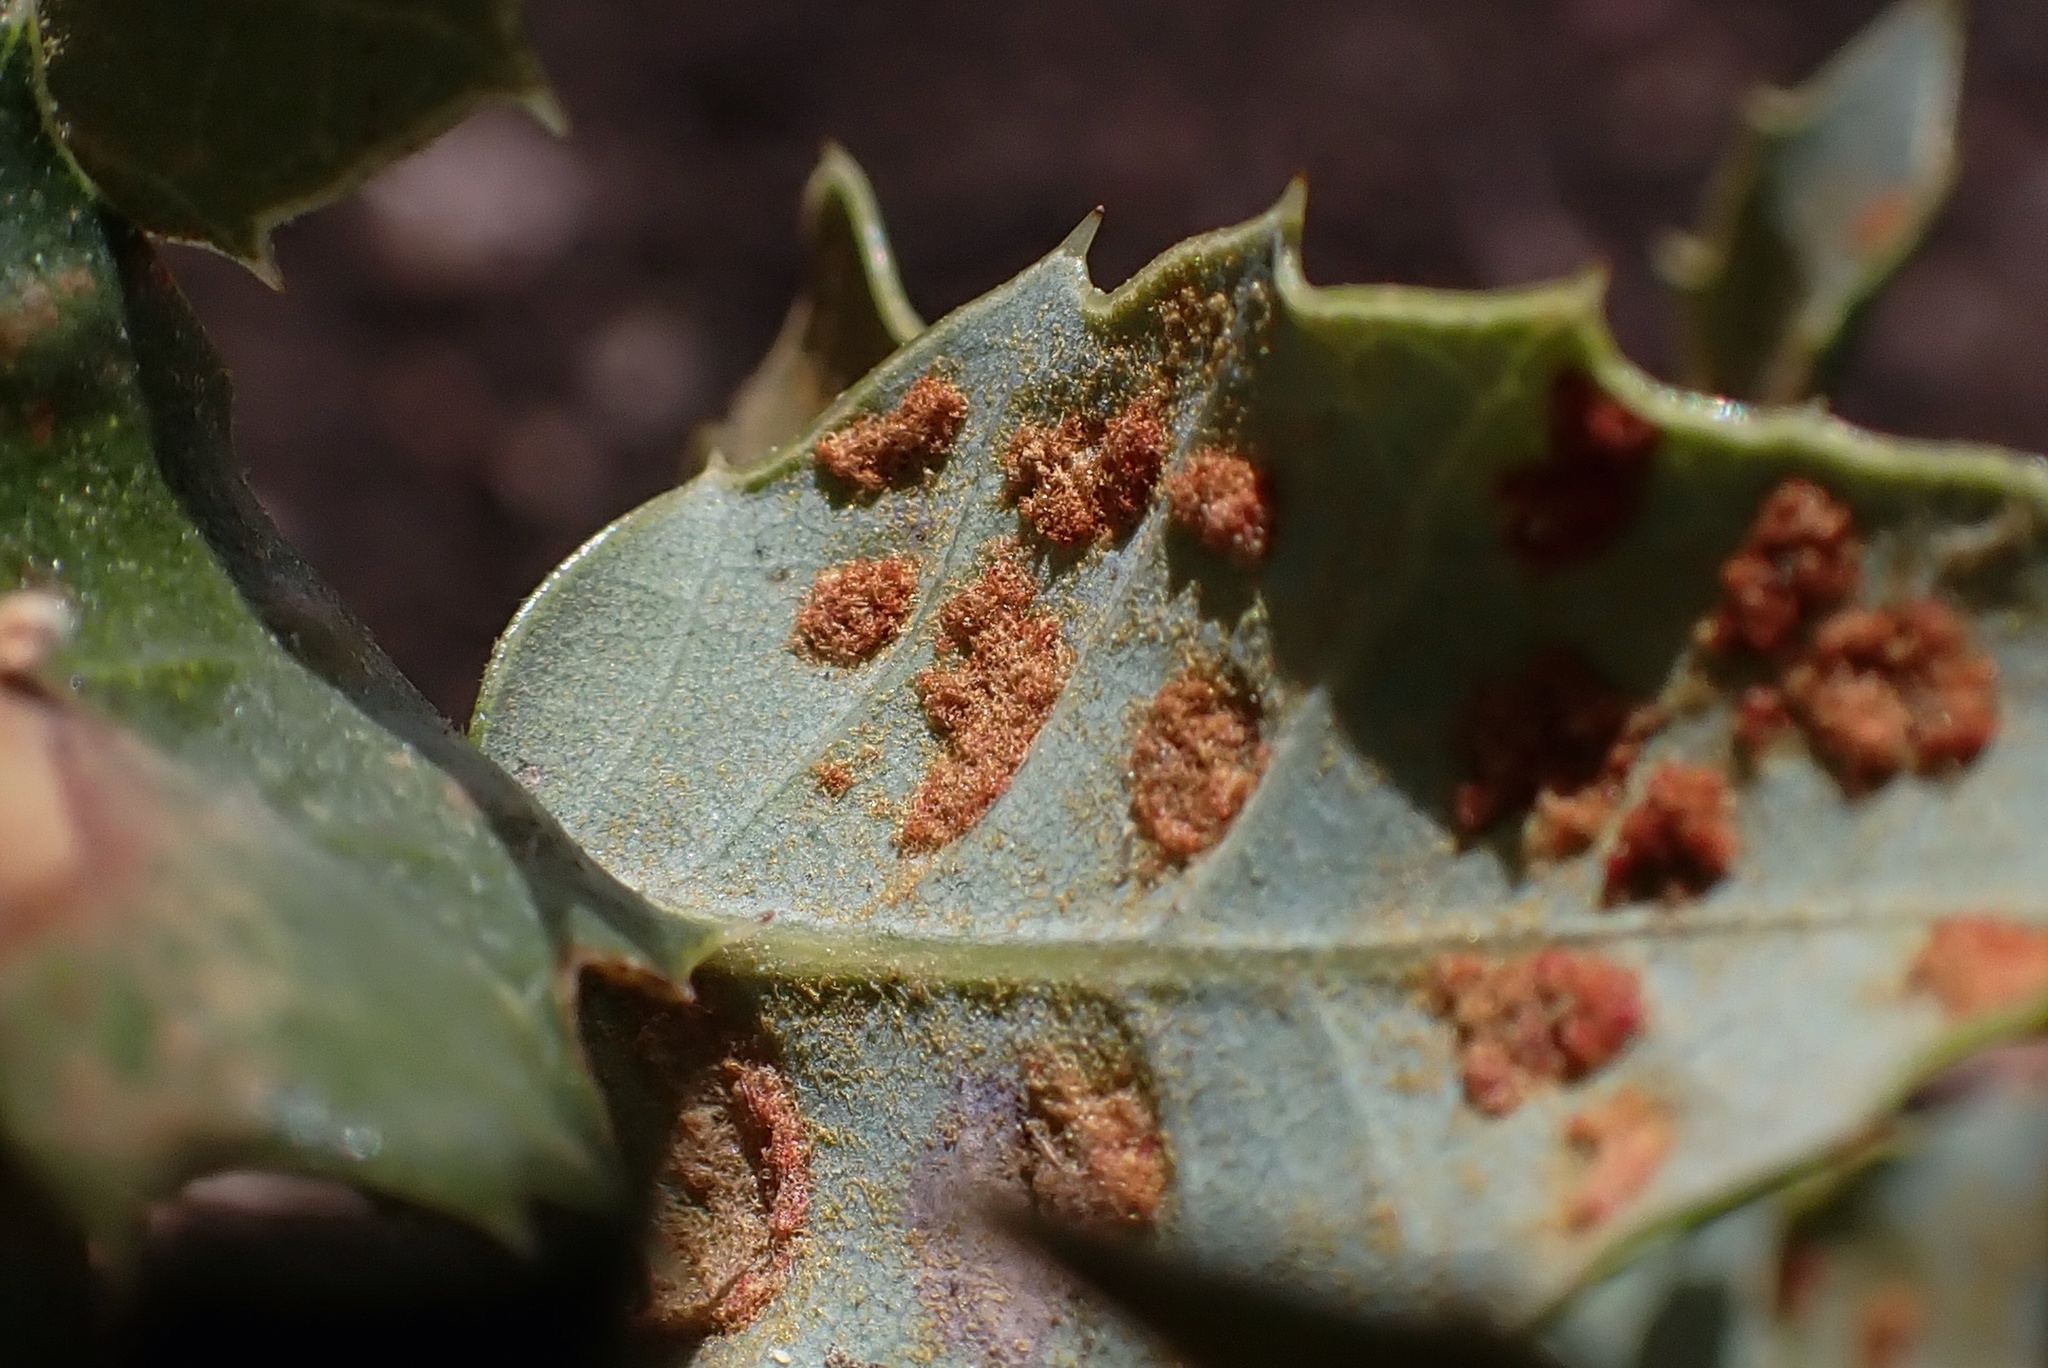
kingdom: Animalia
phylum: Arthropoda
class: Arachnida
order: Trombidiformes
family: Eriophyidae
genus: Aceria
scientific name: Aceria
